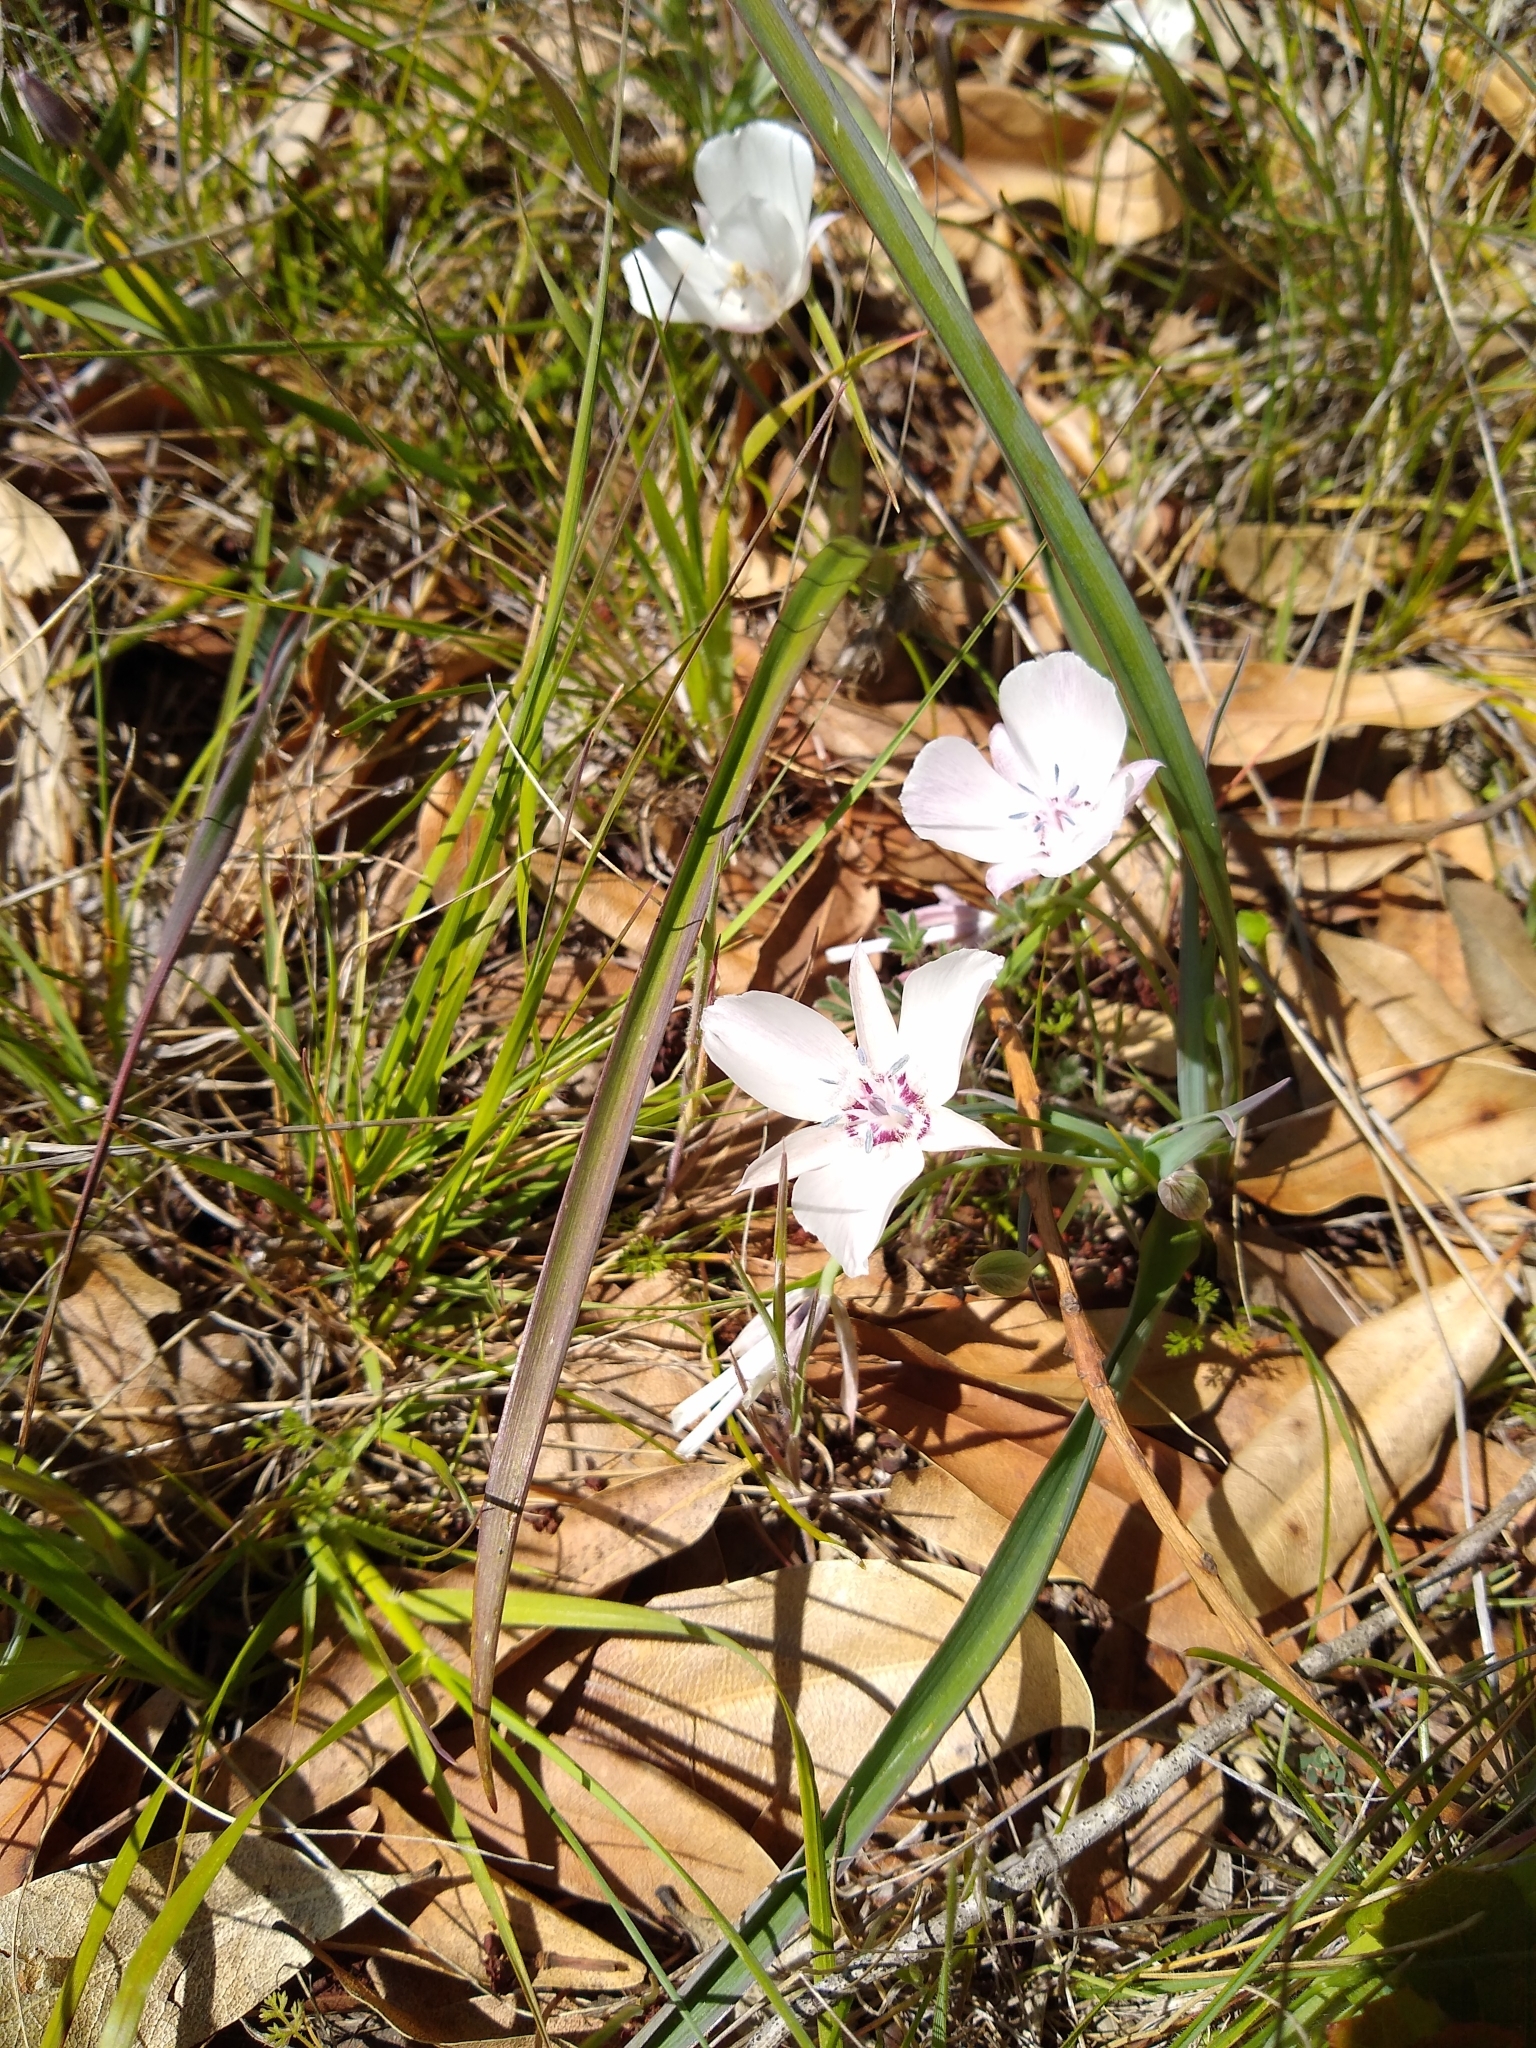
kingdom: Plantae
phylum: Tracheophyta
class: Liliopsida
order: Liliales
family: Liliaceae
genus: Calochortus
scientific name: Calochortus umbellatus
